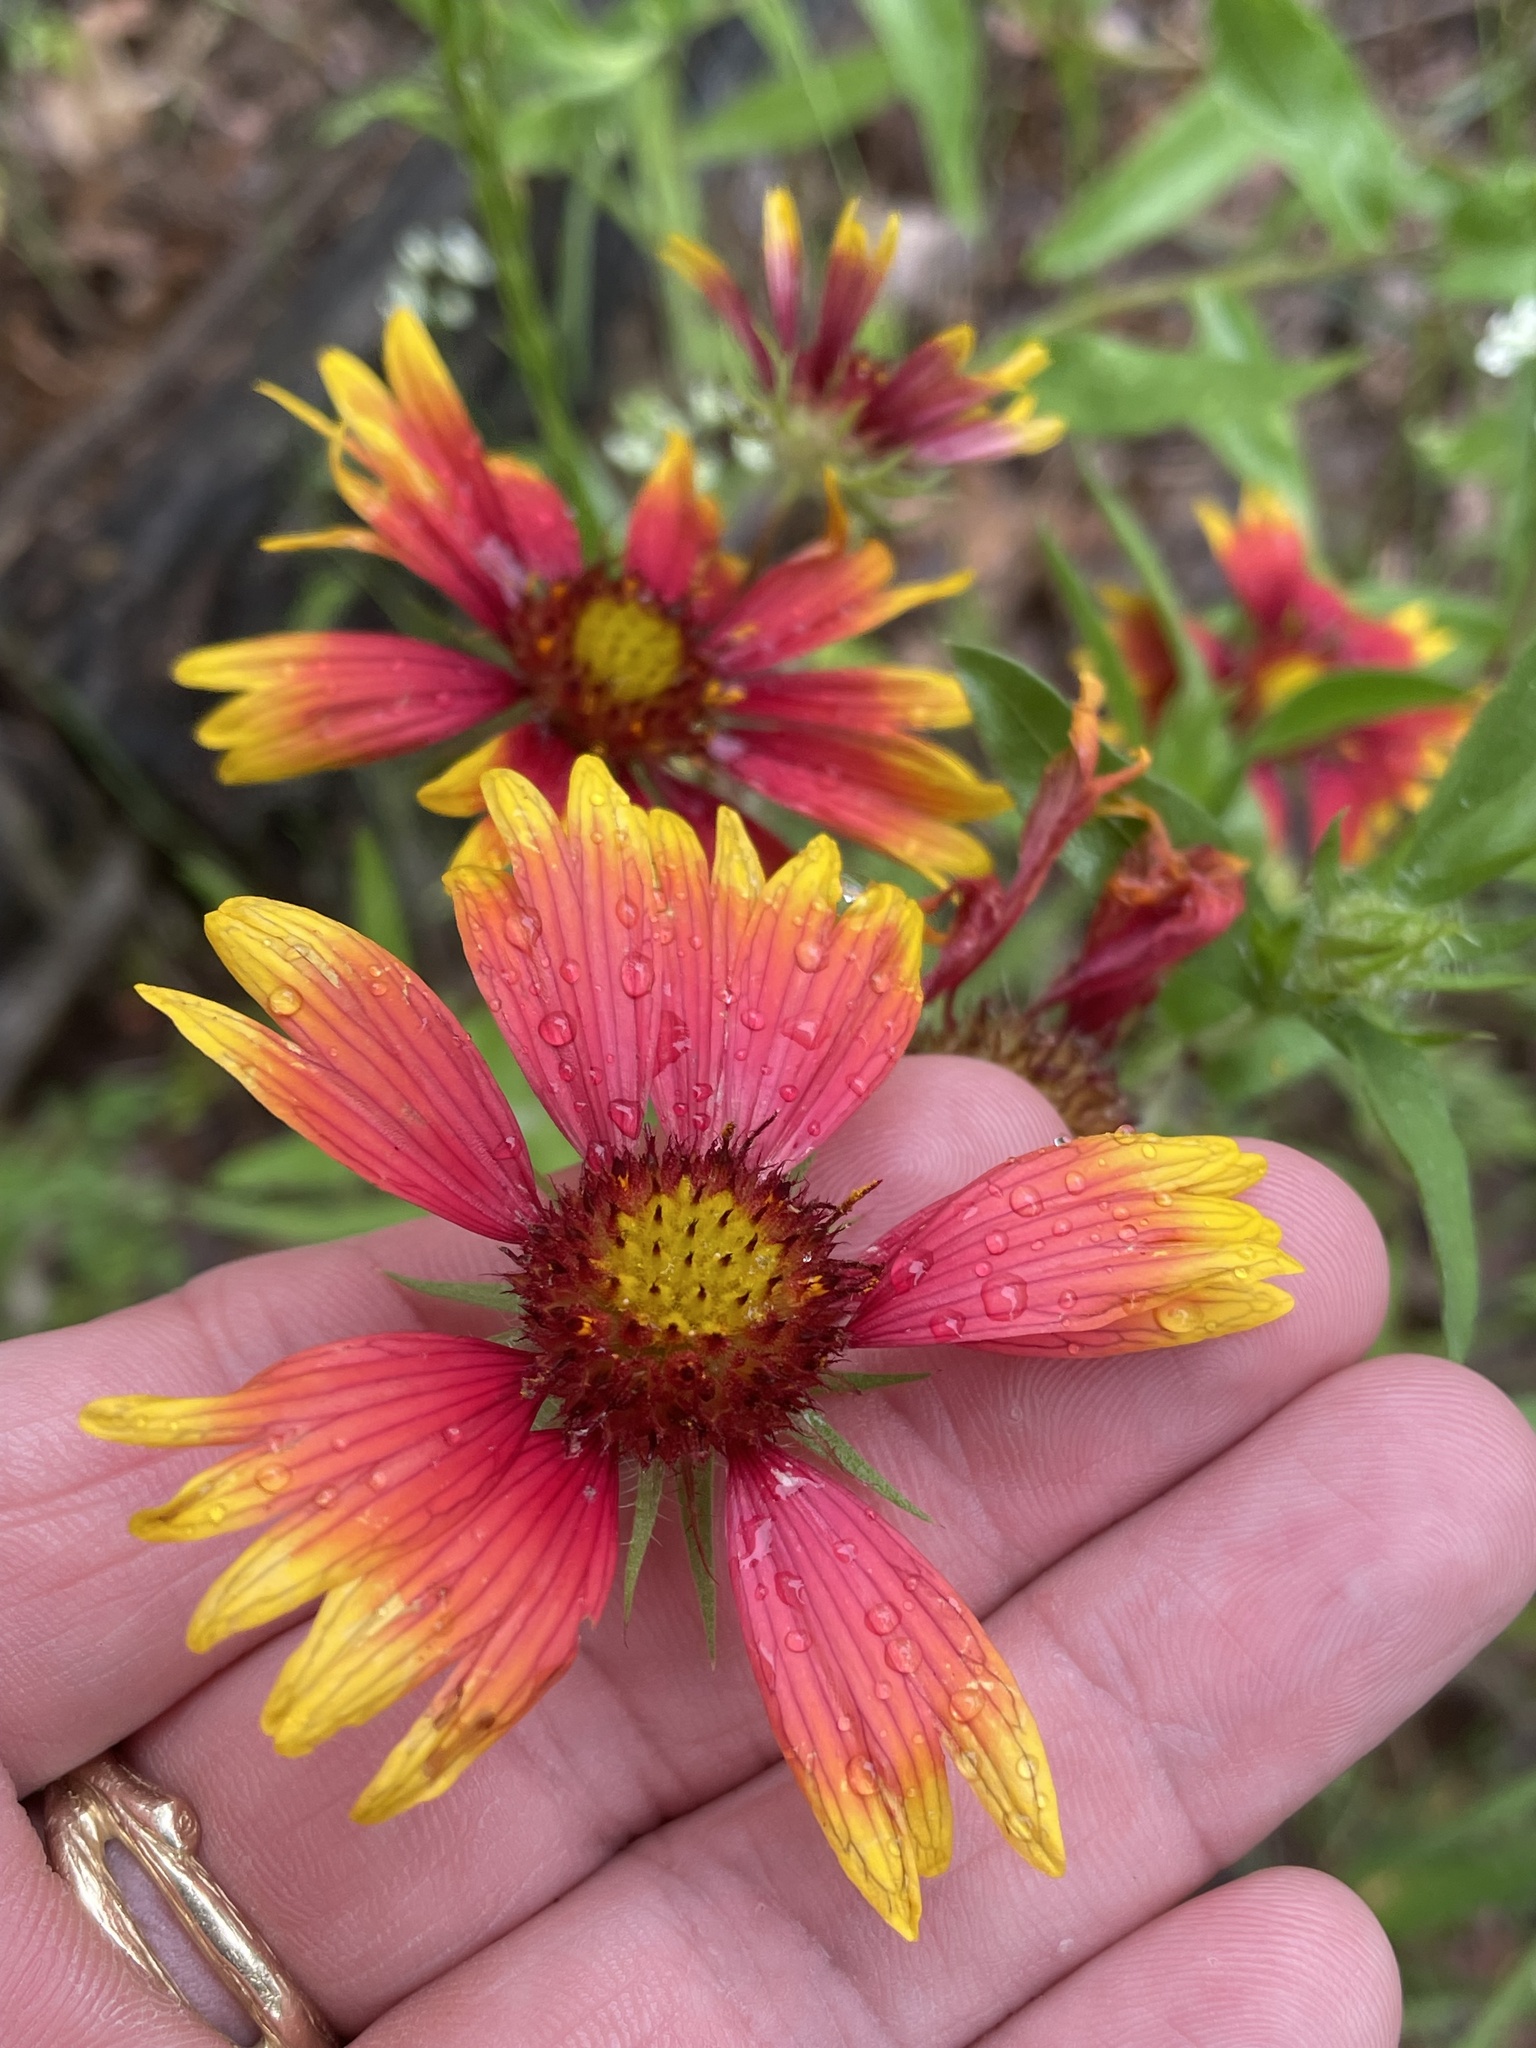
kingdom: Plantae
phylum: Tracheophyta
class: Magnoliopsida
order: Asterales
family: Asteraceae
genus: Gaillardia
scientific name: Gaillardia pulchella
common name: Firewheel
